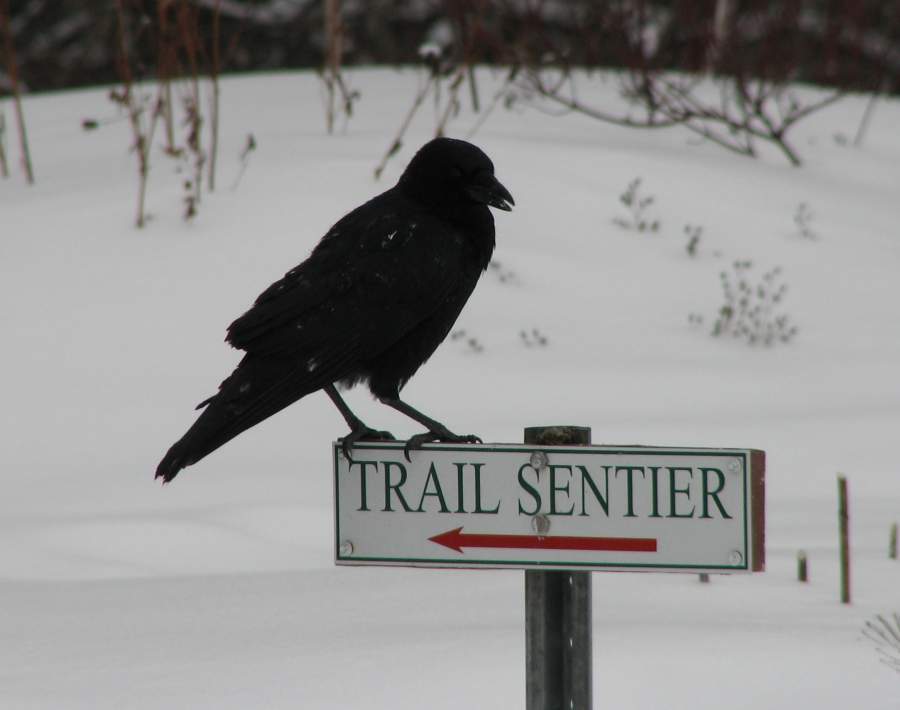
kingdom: Animalia
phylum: Chordata
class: Aves
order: Passeriformes
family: Corvidae
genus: Corvus
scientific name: Corvus brachyrhynchos
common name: American crow
